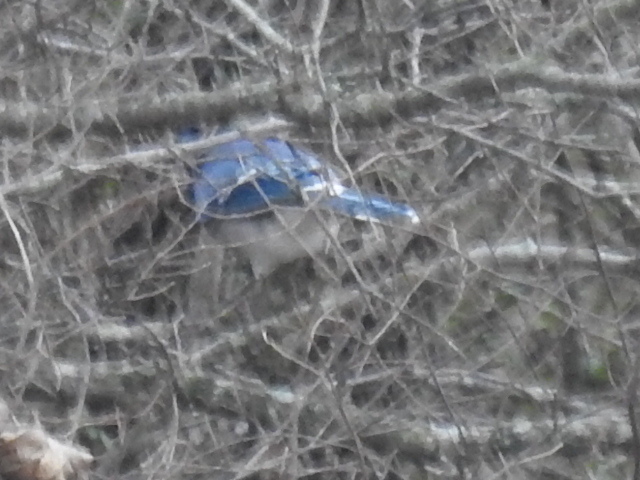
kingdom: Animalia
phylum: Chordata
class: Aves
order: Passeriformes
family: Corvidae
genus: Cyanocitta
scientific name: Cyanocitta cristata
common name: Blue jay
